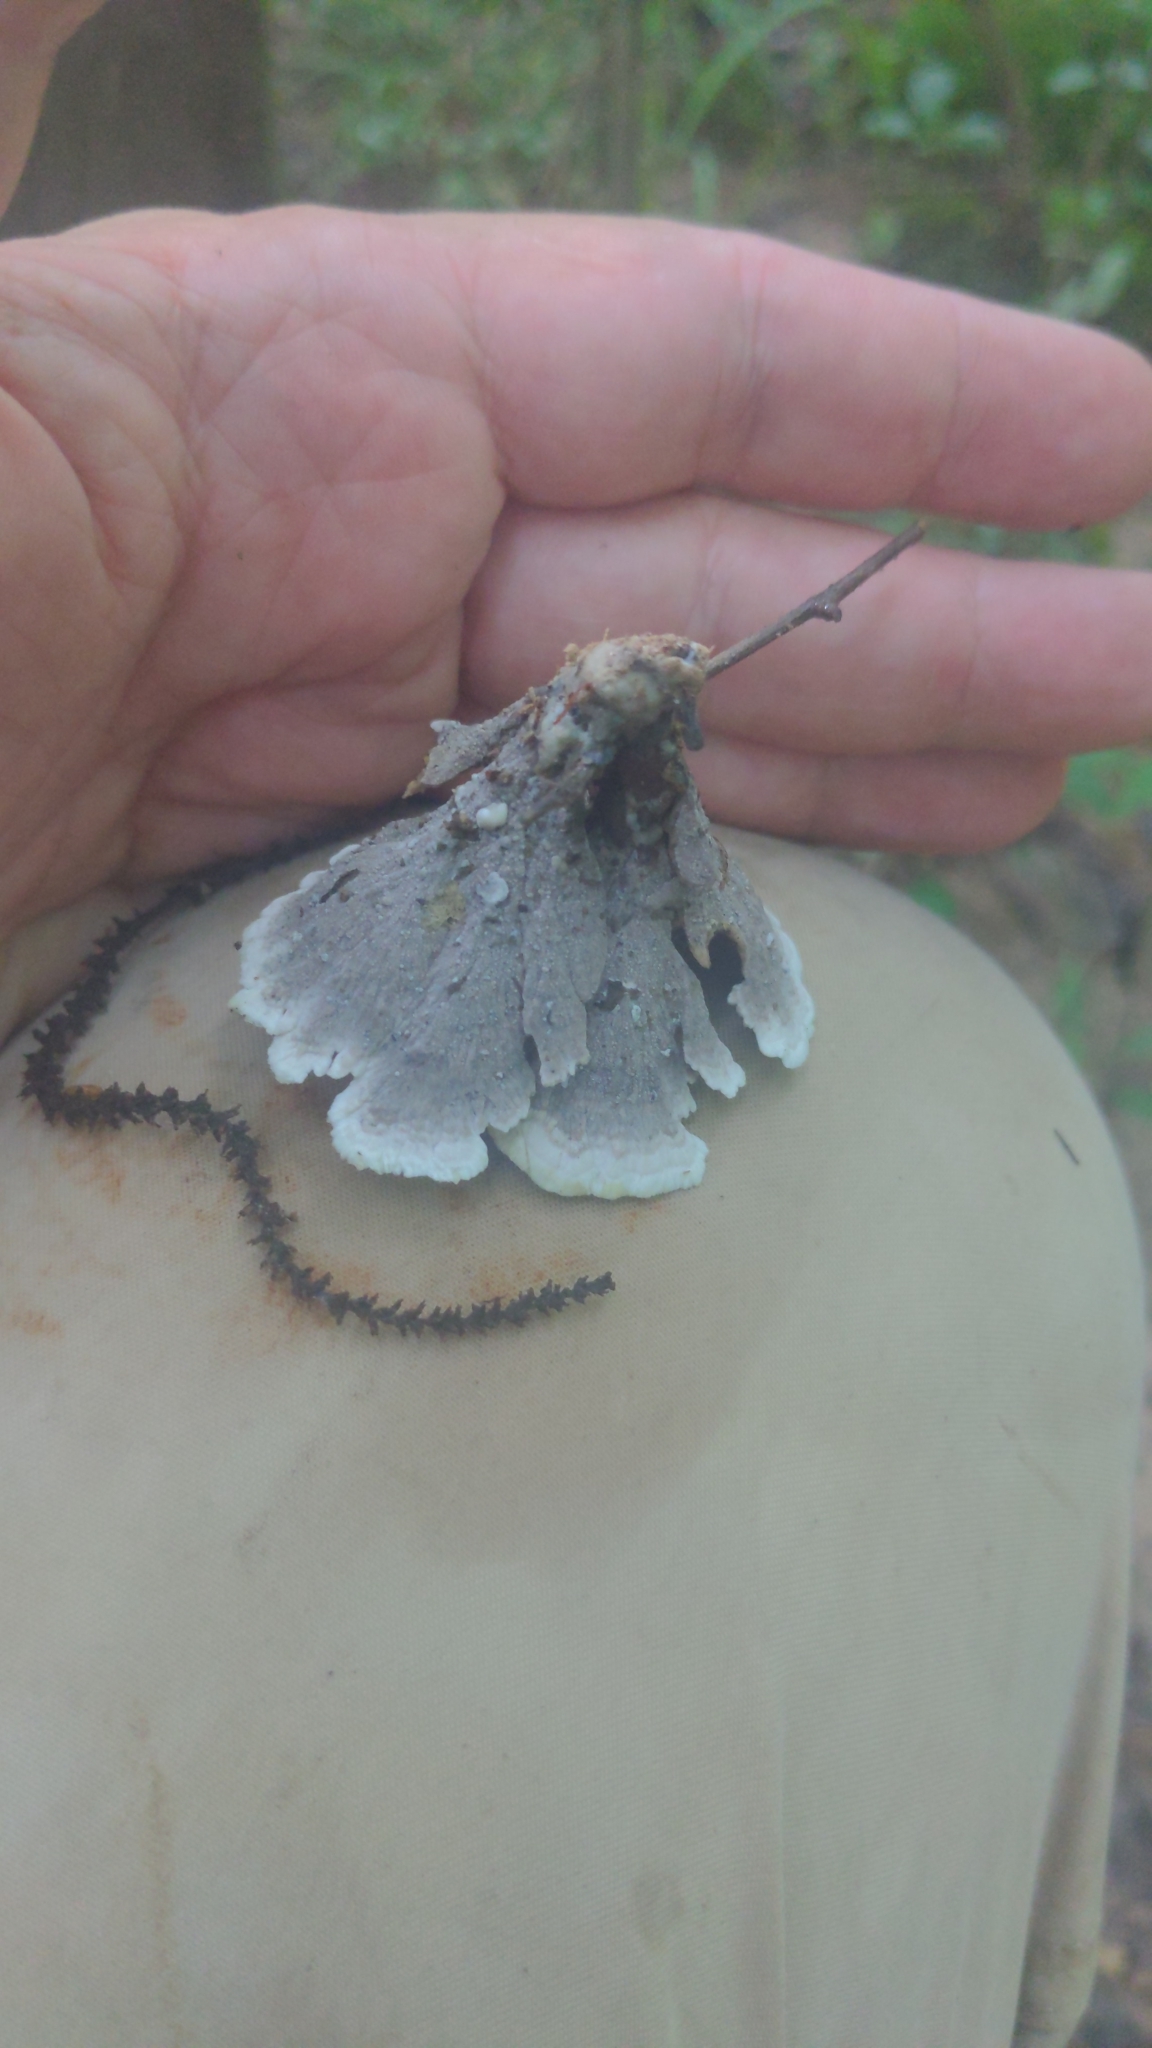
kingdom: Fungi
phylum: Basidiomycota
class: Agaricomycetes
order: Thelephorales
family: Thelephoraceae
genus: Thelephora
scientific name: Thelephora vialis
